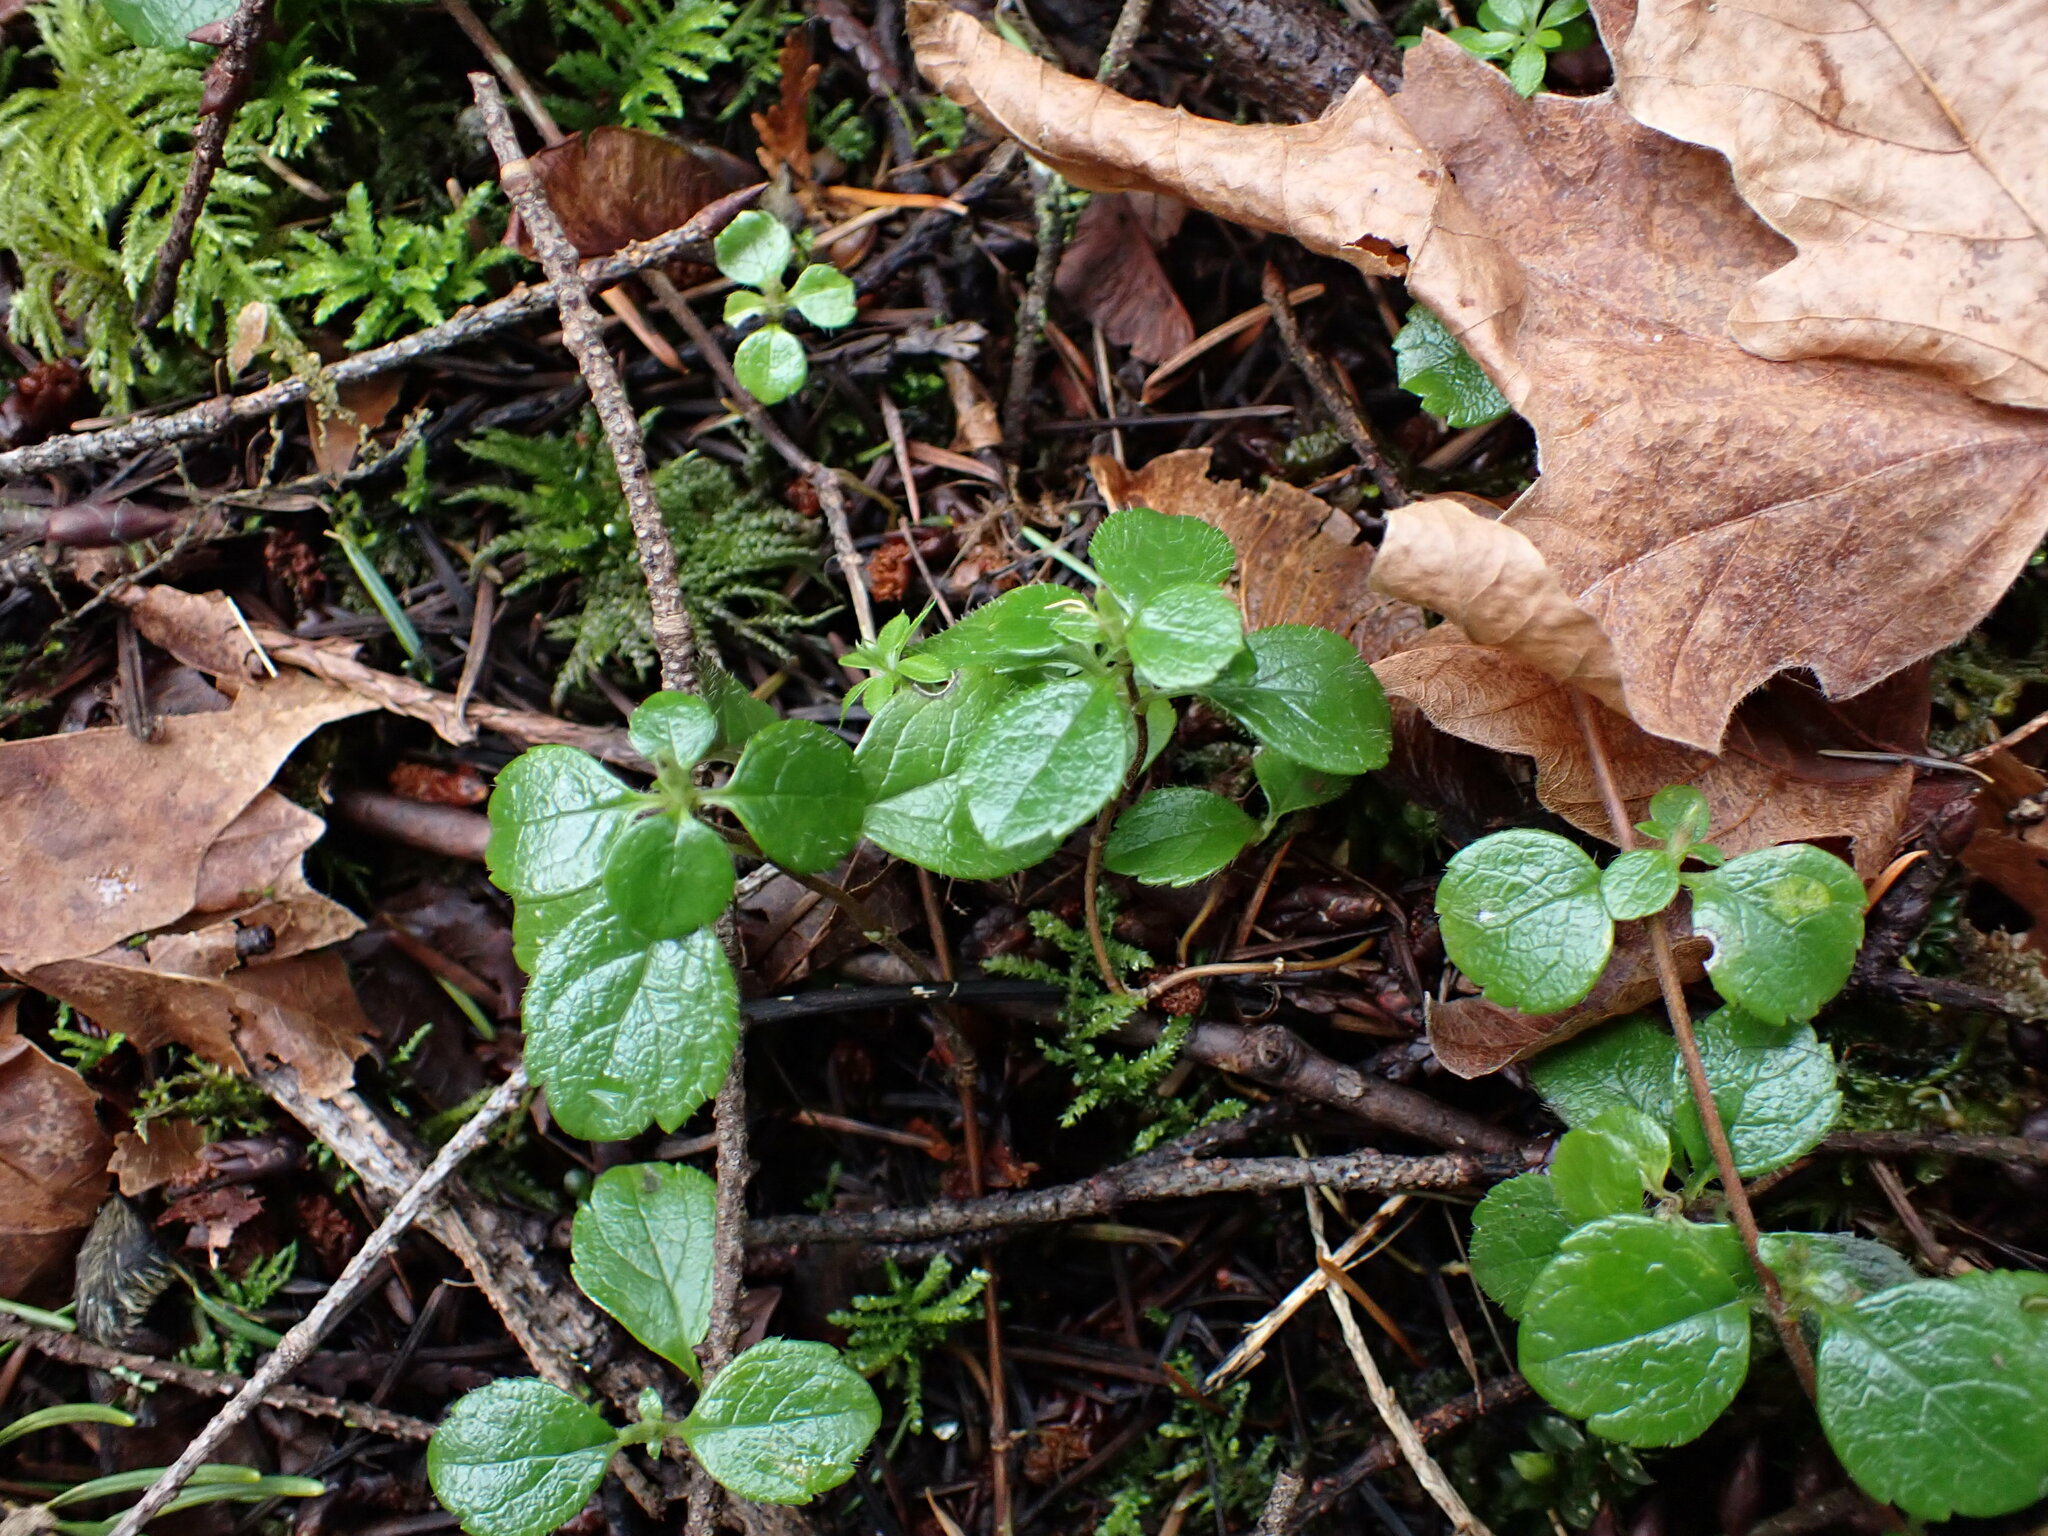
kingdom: Plantae
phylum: Tracheophyta
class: Magnoliopsida
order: Dipsacales
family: Caprifoliaceae
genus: Linnaea
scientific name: Linnaea borealis
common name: Twinflower
